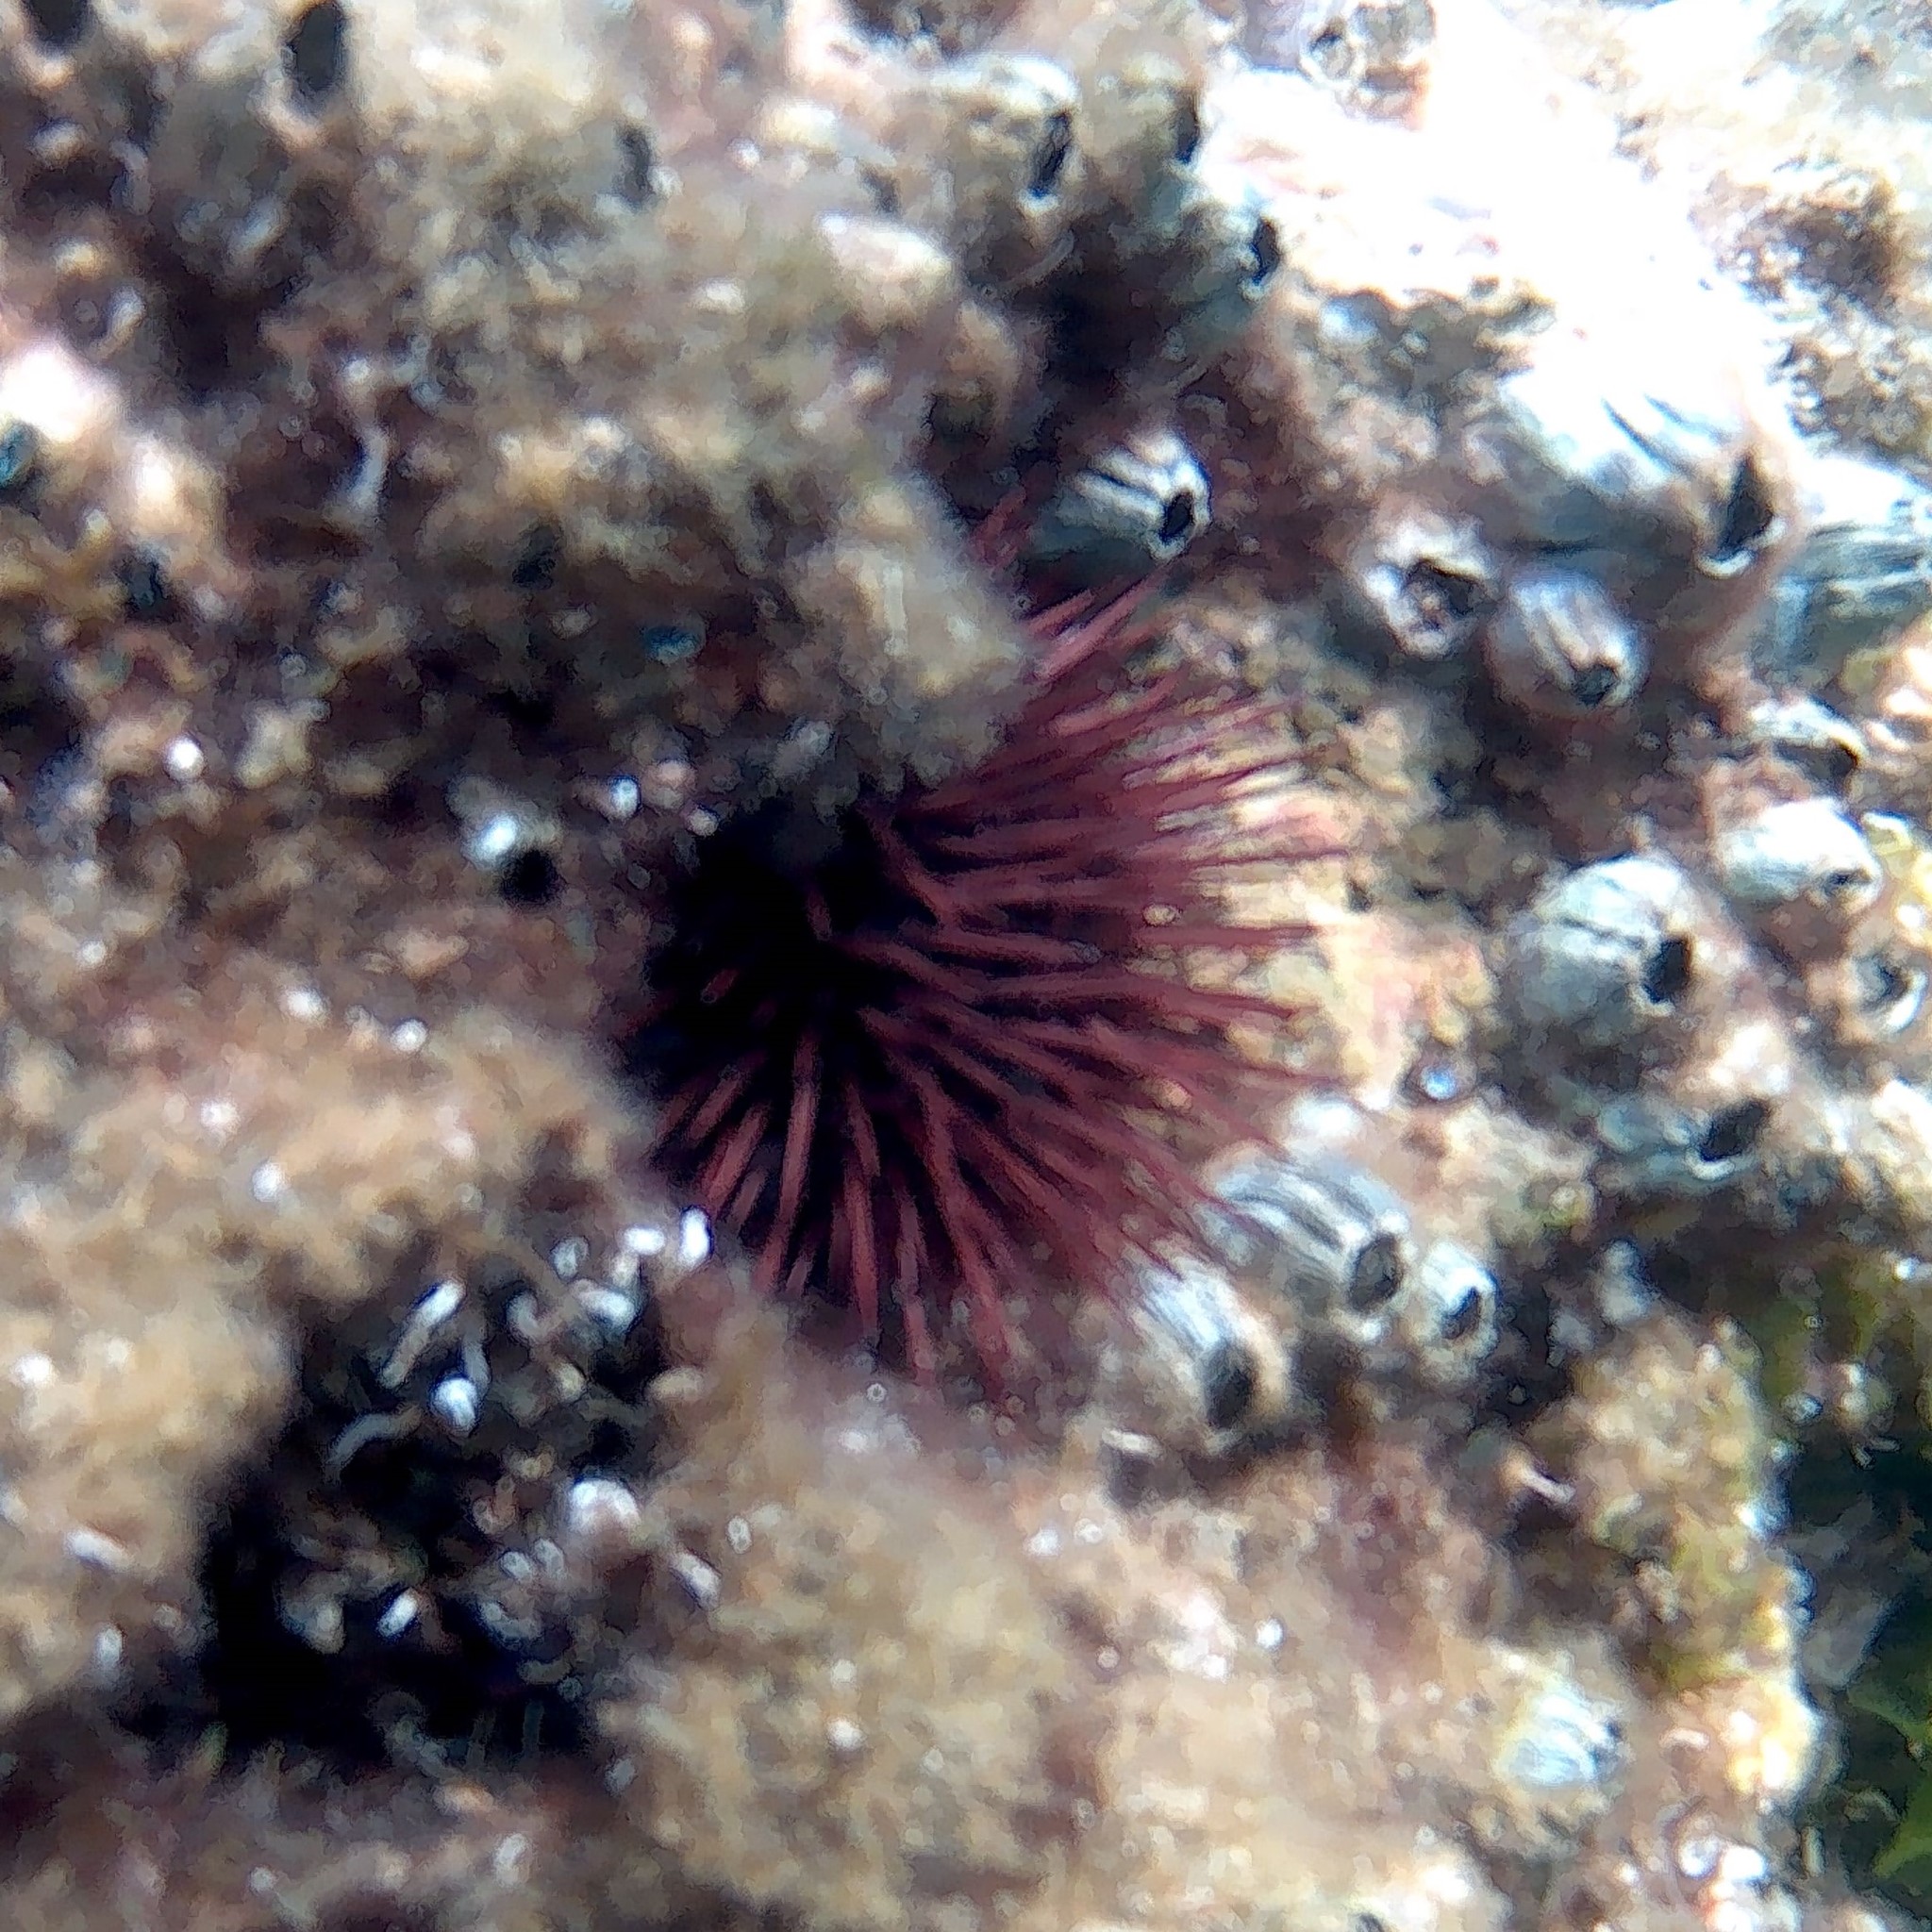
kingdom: Animalia
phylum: Echinodermata
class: Echinoidea
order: Camarodonta
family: Parechinidae
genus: Paracentrotus
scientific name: Paracentrotus lividus
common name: Purple sea urchin
